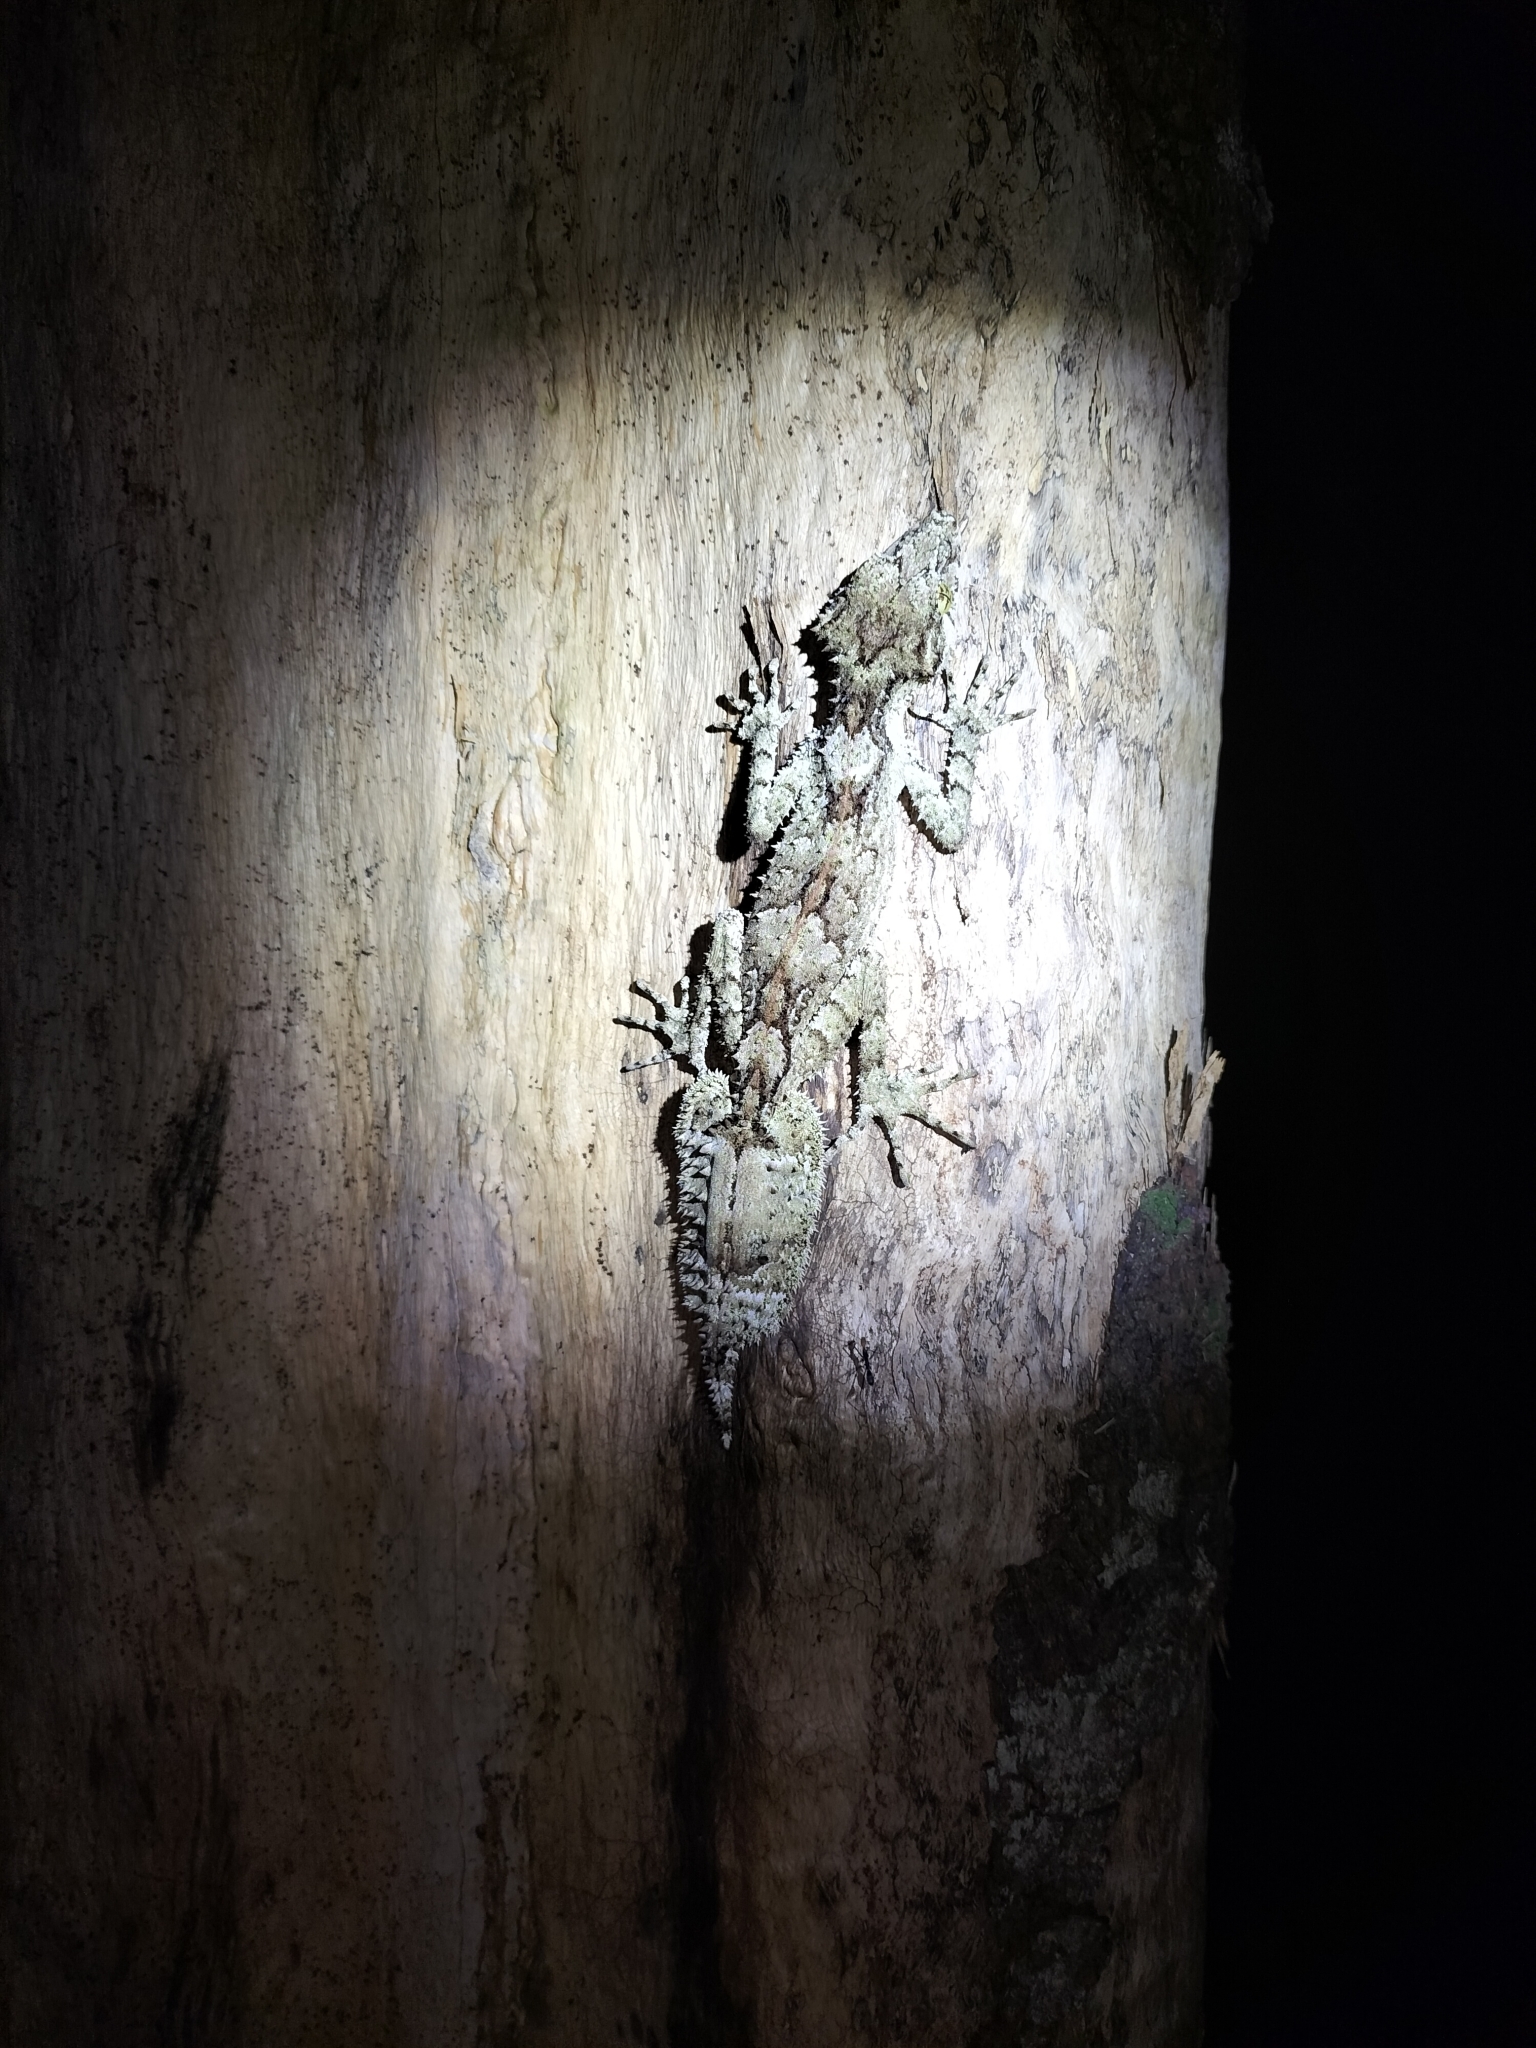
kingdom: Animalia
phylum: Chordata
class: Squamata
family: Carphodactylidae
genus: Saltuarius
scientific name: Saltuarius cornutus
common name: Leaf-tailed gecko
